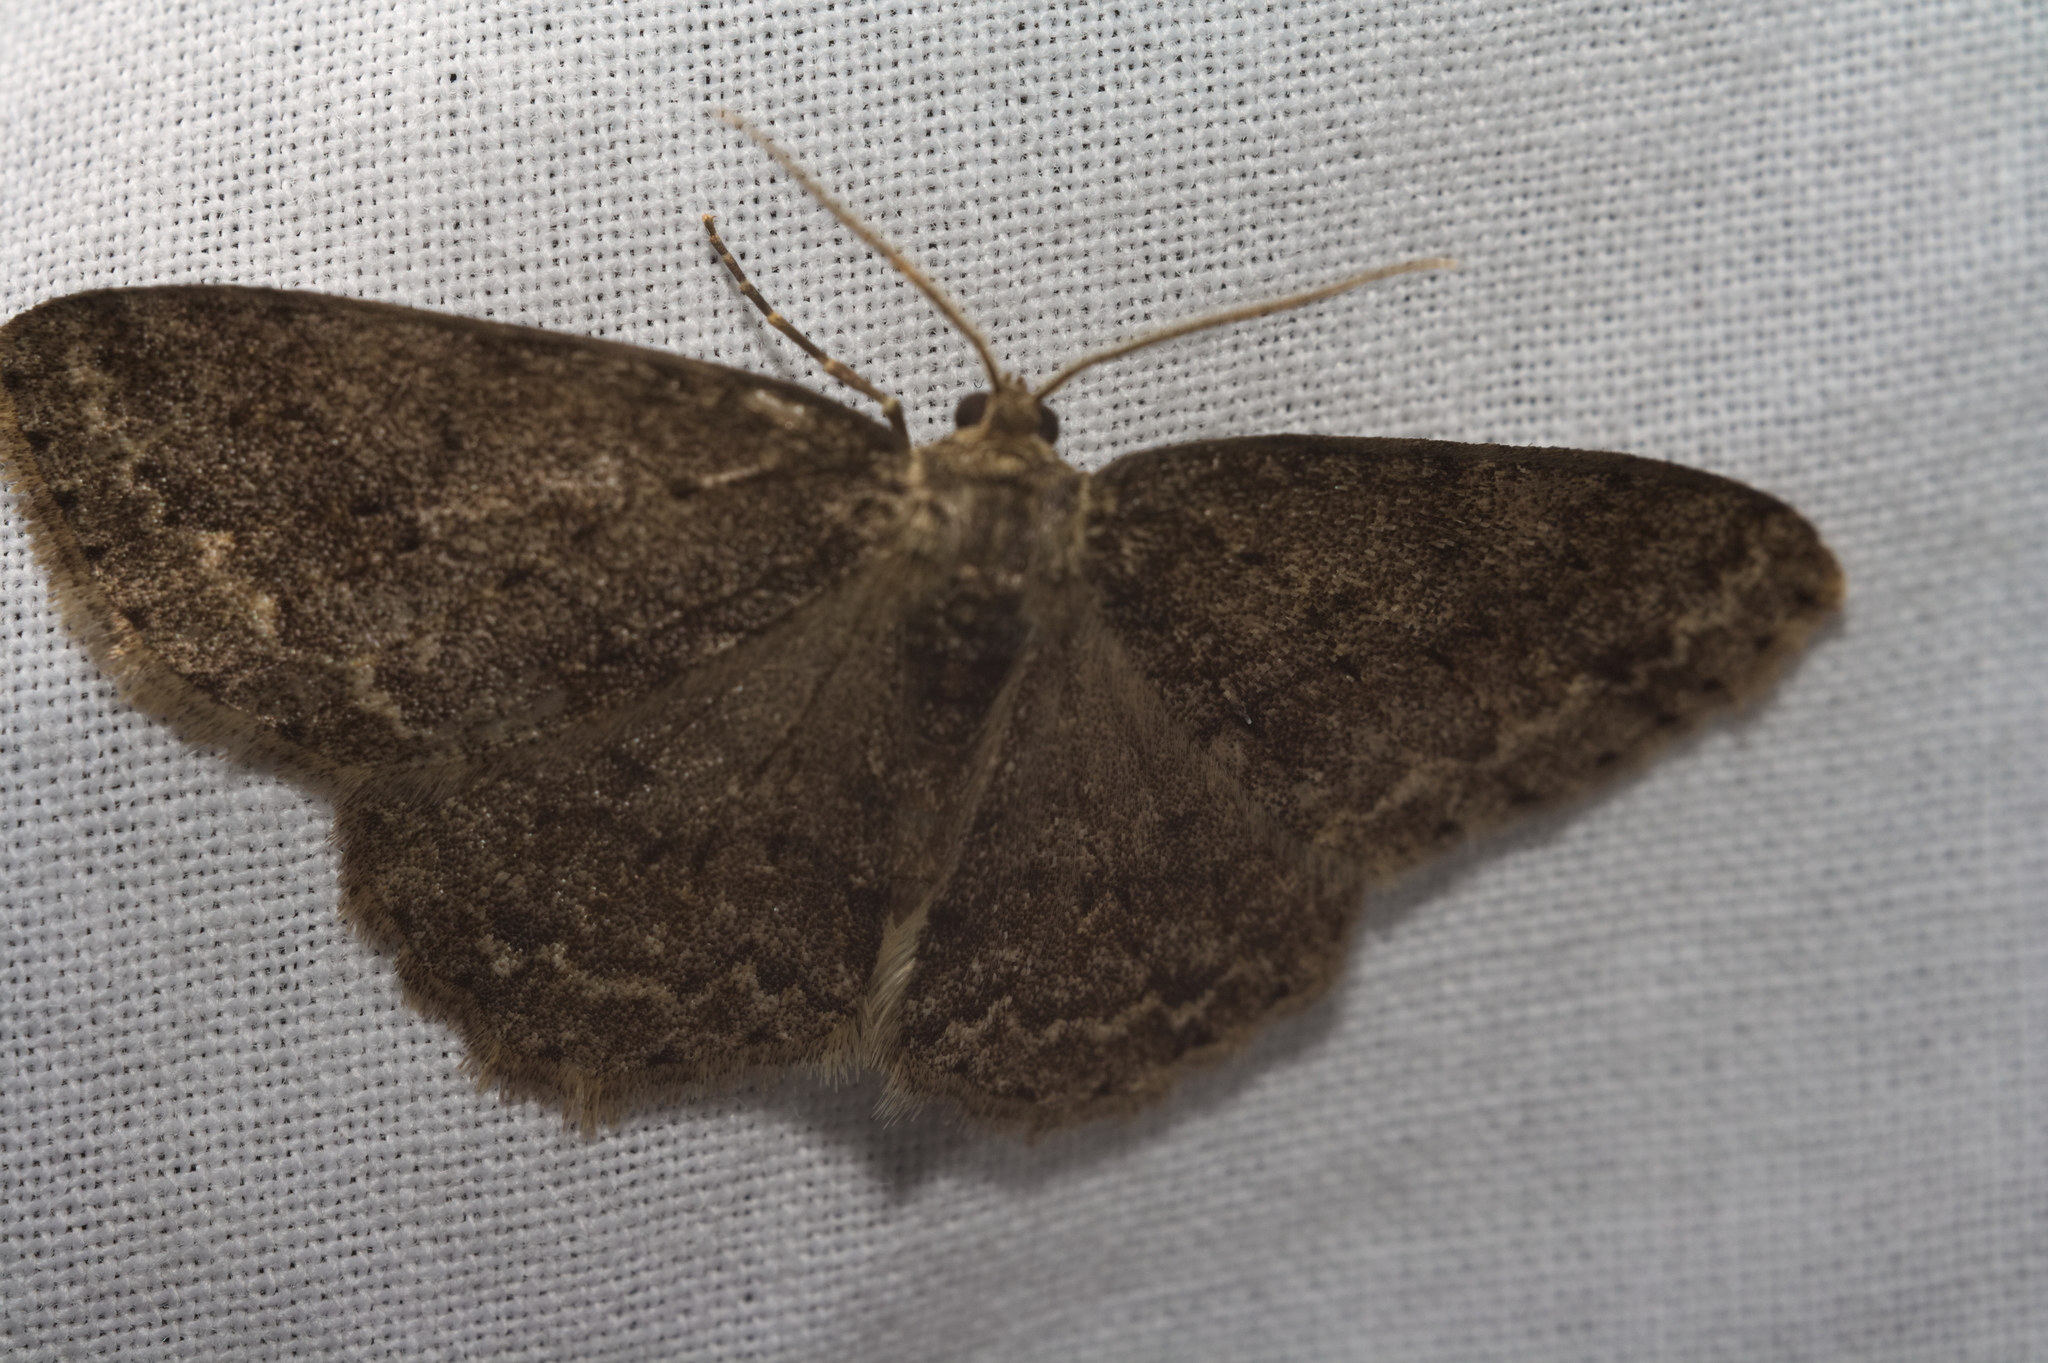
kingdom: Animalia
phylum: Arthropoda
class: Insecta
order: Lepidoptera
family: Geometridae
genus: Ectropis
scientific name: Ectropis crepuscularia
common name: Engrailed
